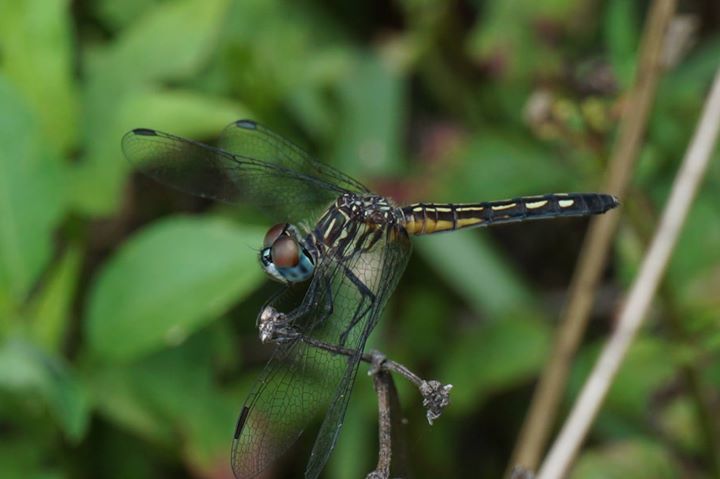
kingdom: Animalia
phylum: Arthropoda
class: Insecta
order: Odonata
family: Libellulidae
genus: Pachydiplax
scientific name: Pachydiplax longipennis
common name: Blue dasher
